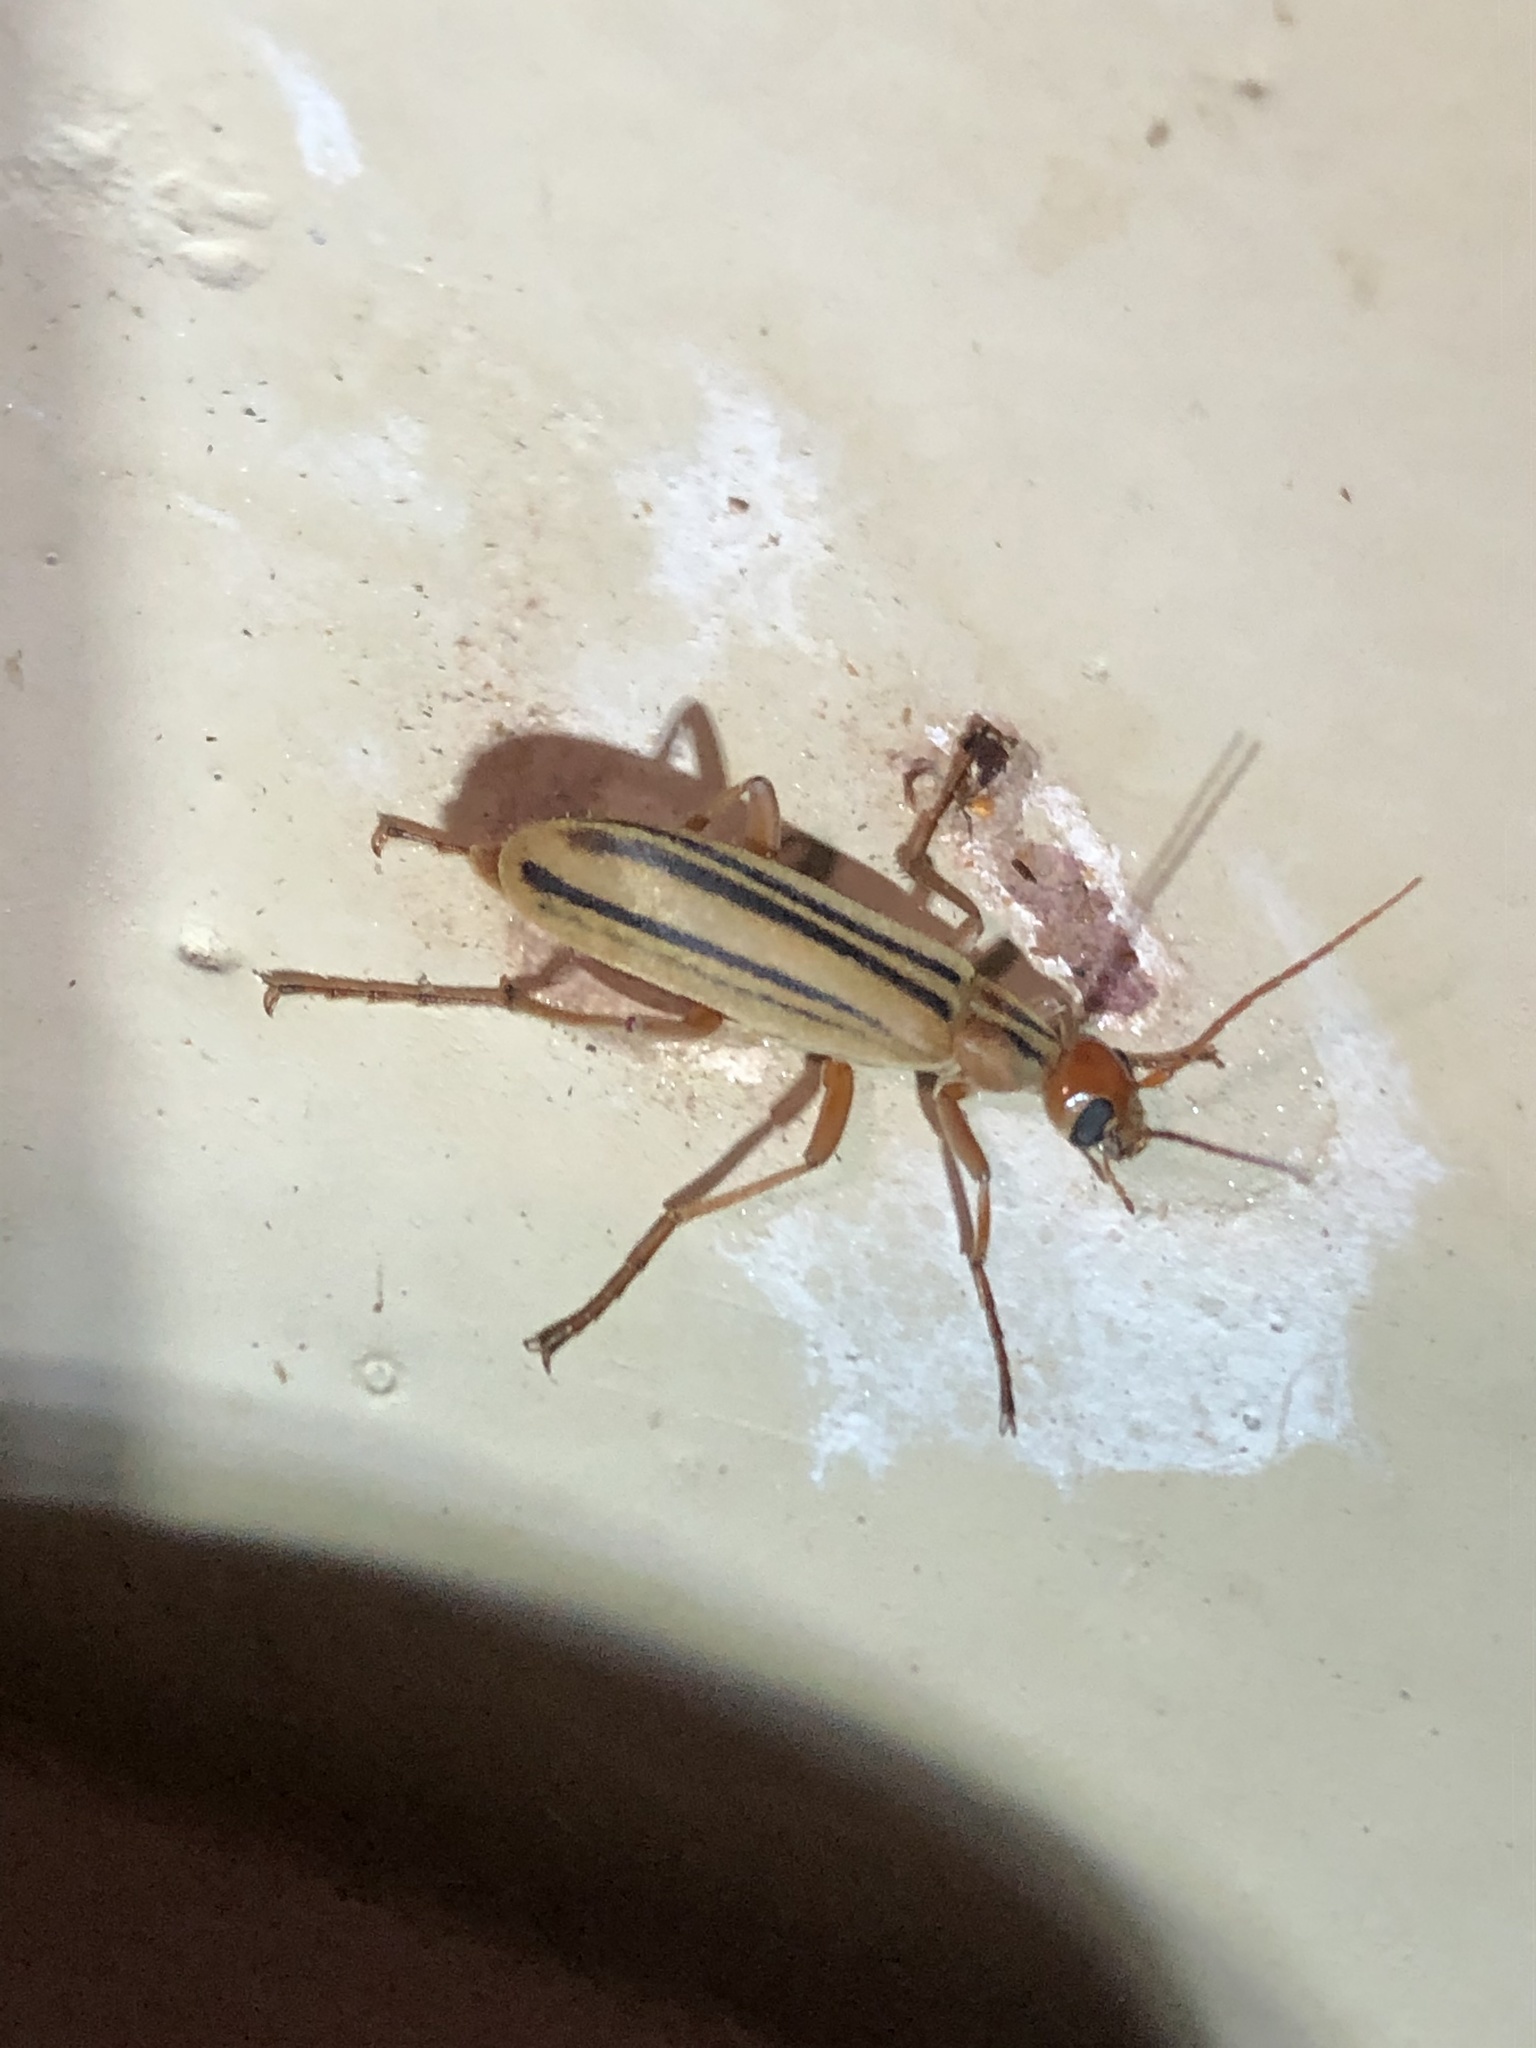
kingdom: Animalia
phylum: Arthropoda
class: Insecta
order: Coleoptera
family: Meloidae
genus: Epicauta
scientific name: Epicauta abadona
